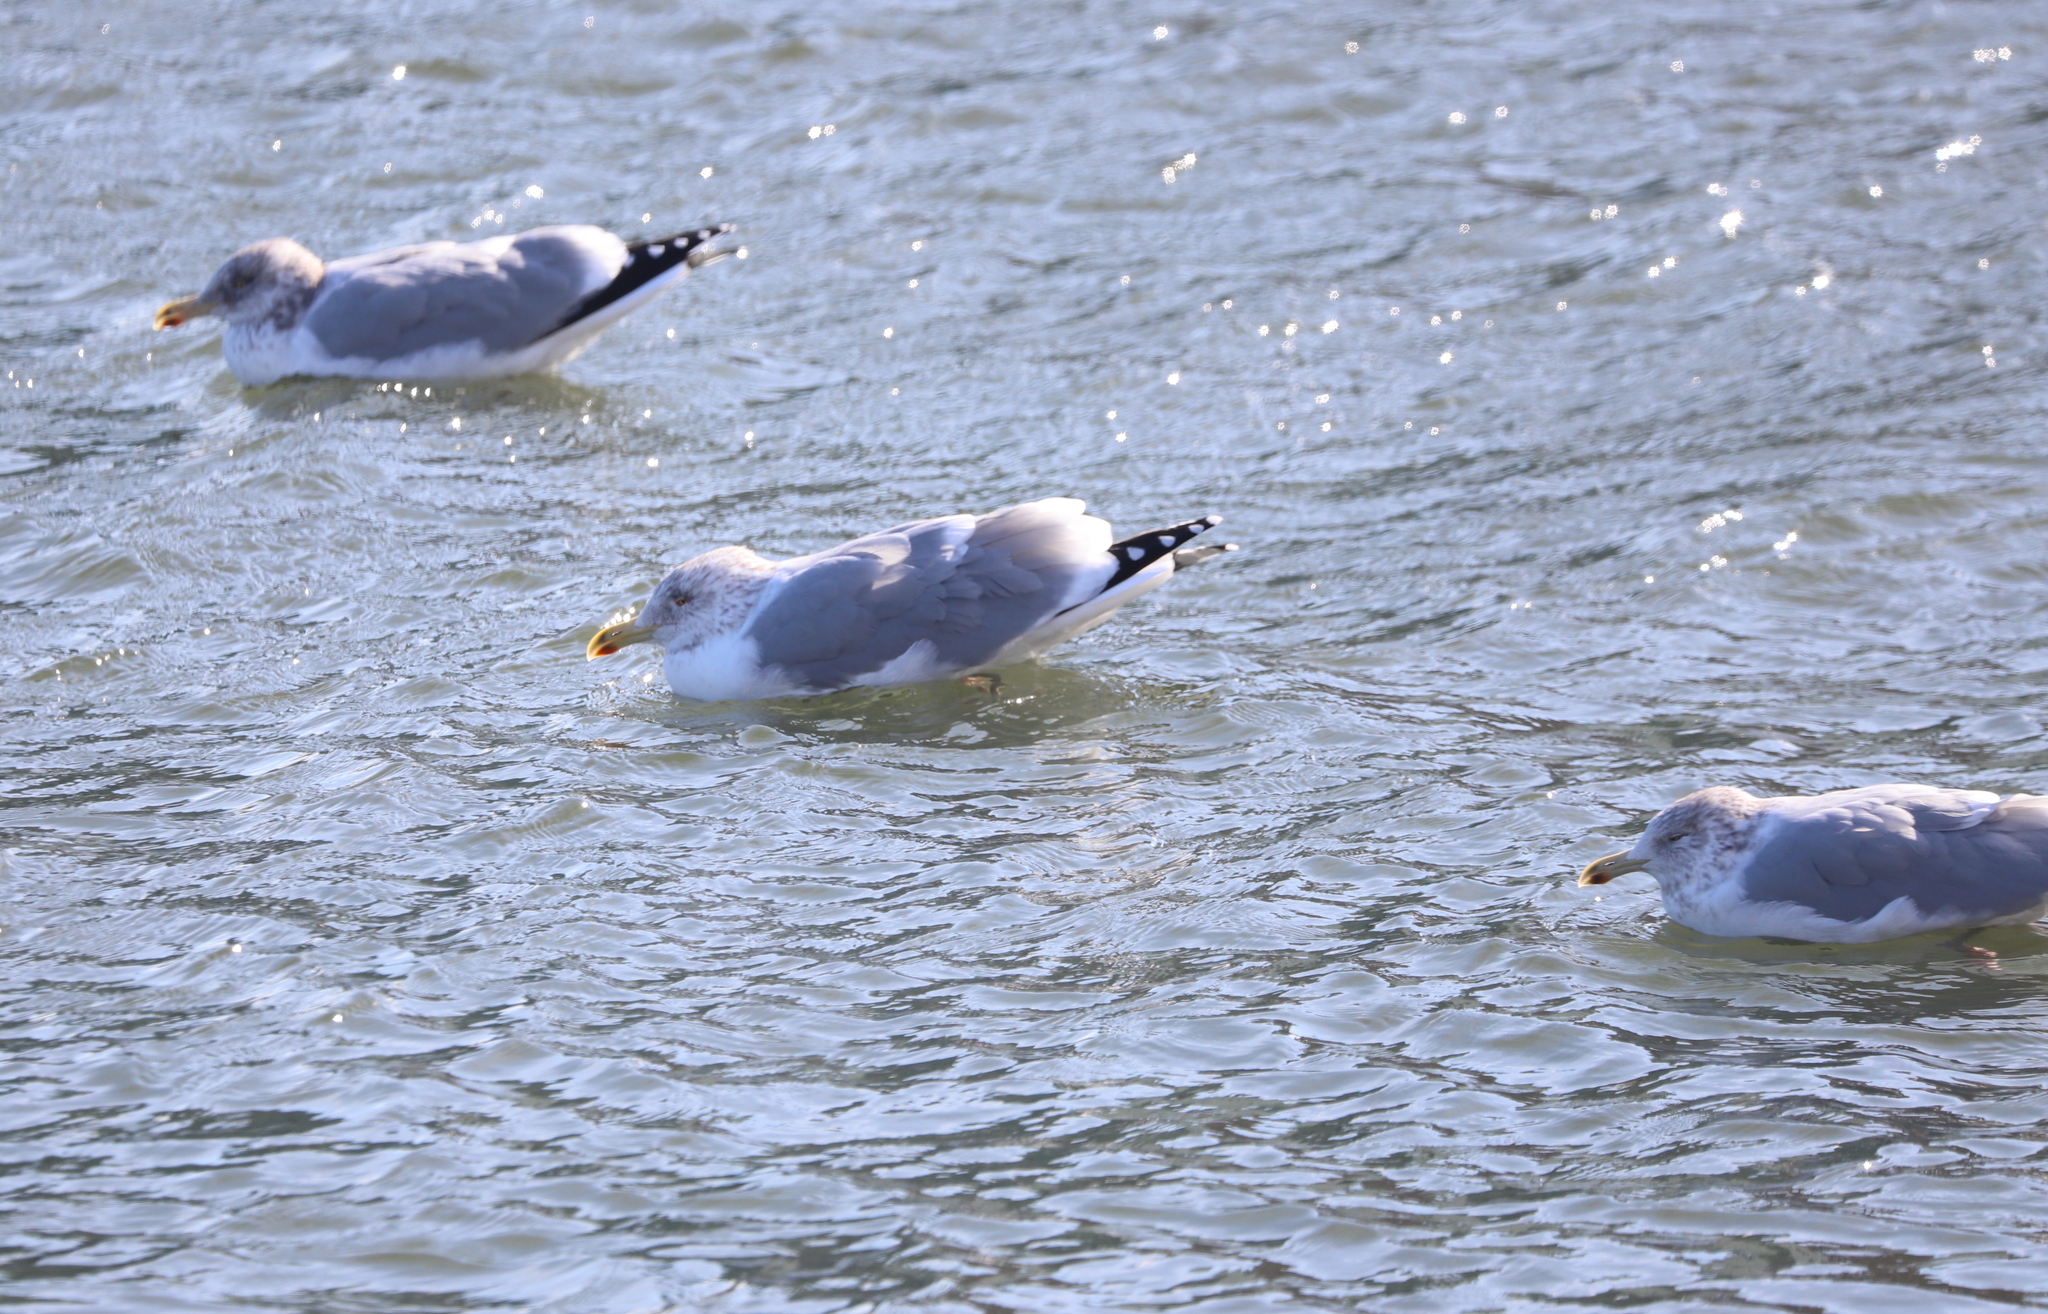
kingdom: Animalia
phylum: Chordata
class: Aves
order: Charadriiformes
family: Laridae
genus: Larus
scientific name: Larus argentatus
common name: Herring gull
